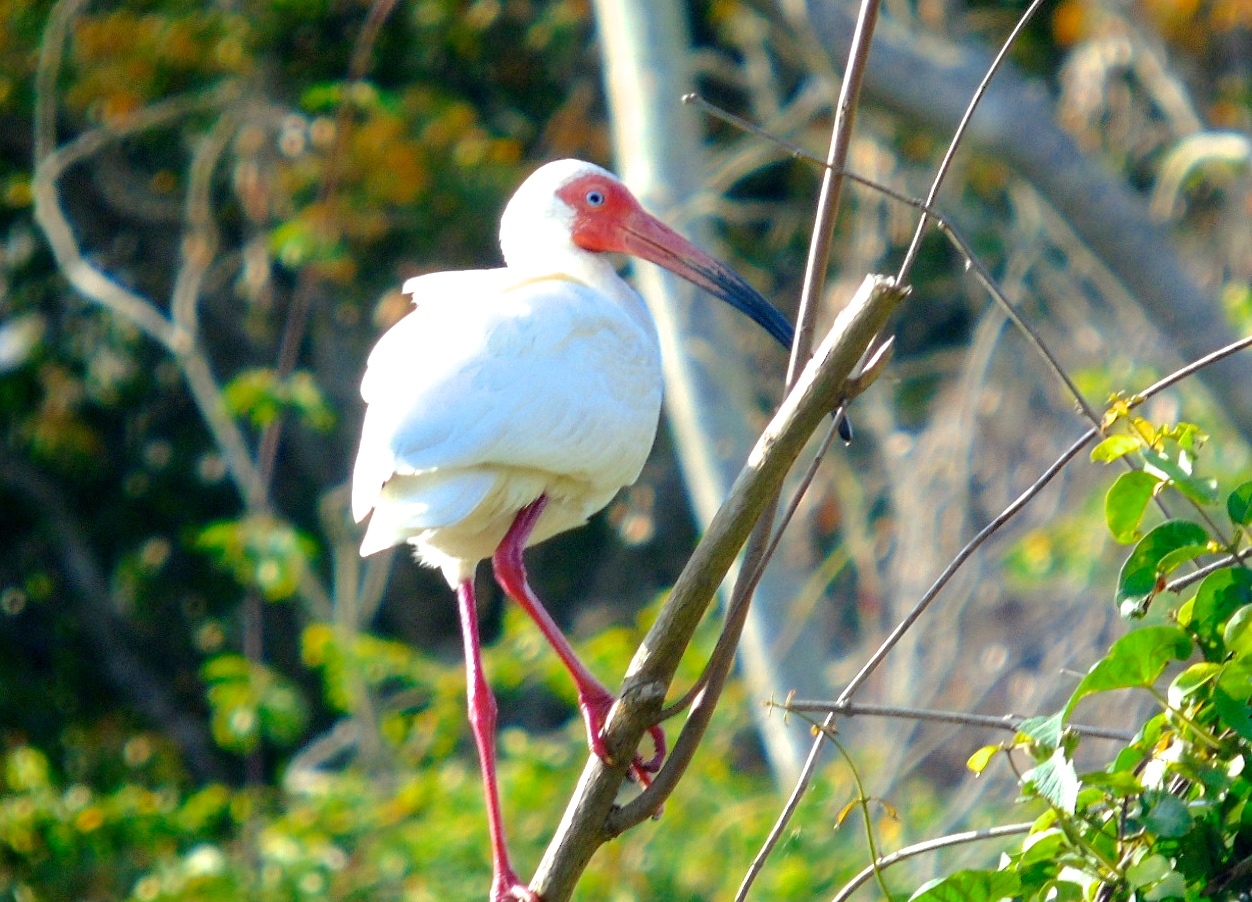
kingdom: Animalia
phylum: Chordata
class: Aves
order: Pelecaniformes
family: Threskiornithidae
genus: Eudocimus
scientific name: Eudocimus albus
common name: White ibis
